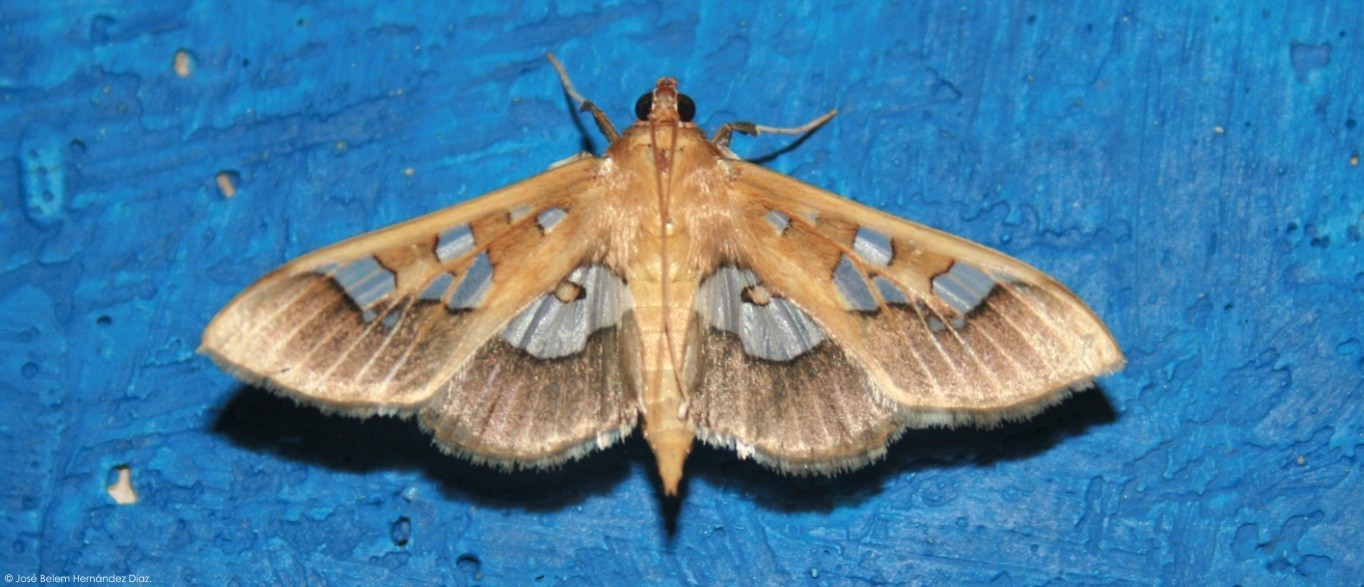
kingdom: Animalia
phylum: Arthropoda
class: Insecta
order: Lepidoptera
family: Crambidae
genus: Phostria
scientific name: Phostria tedea
